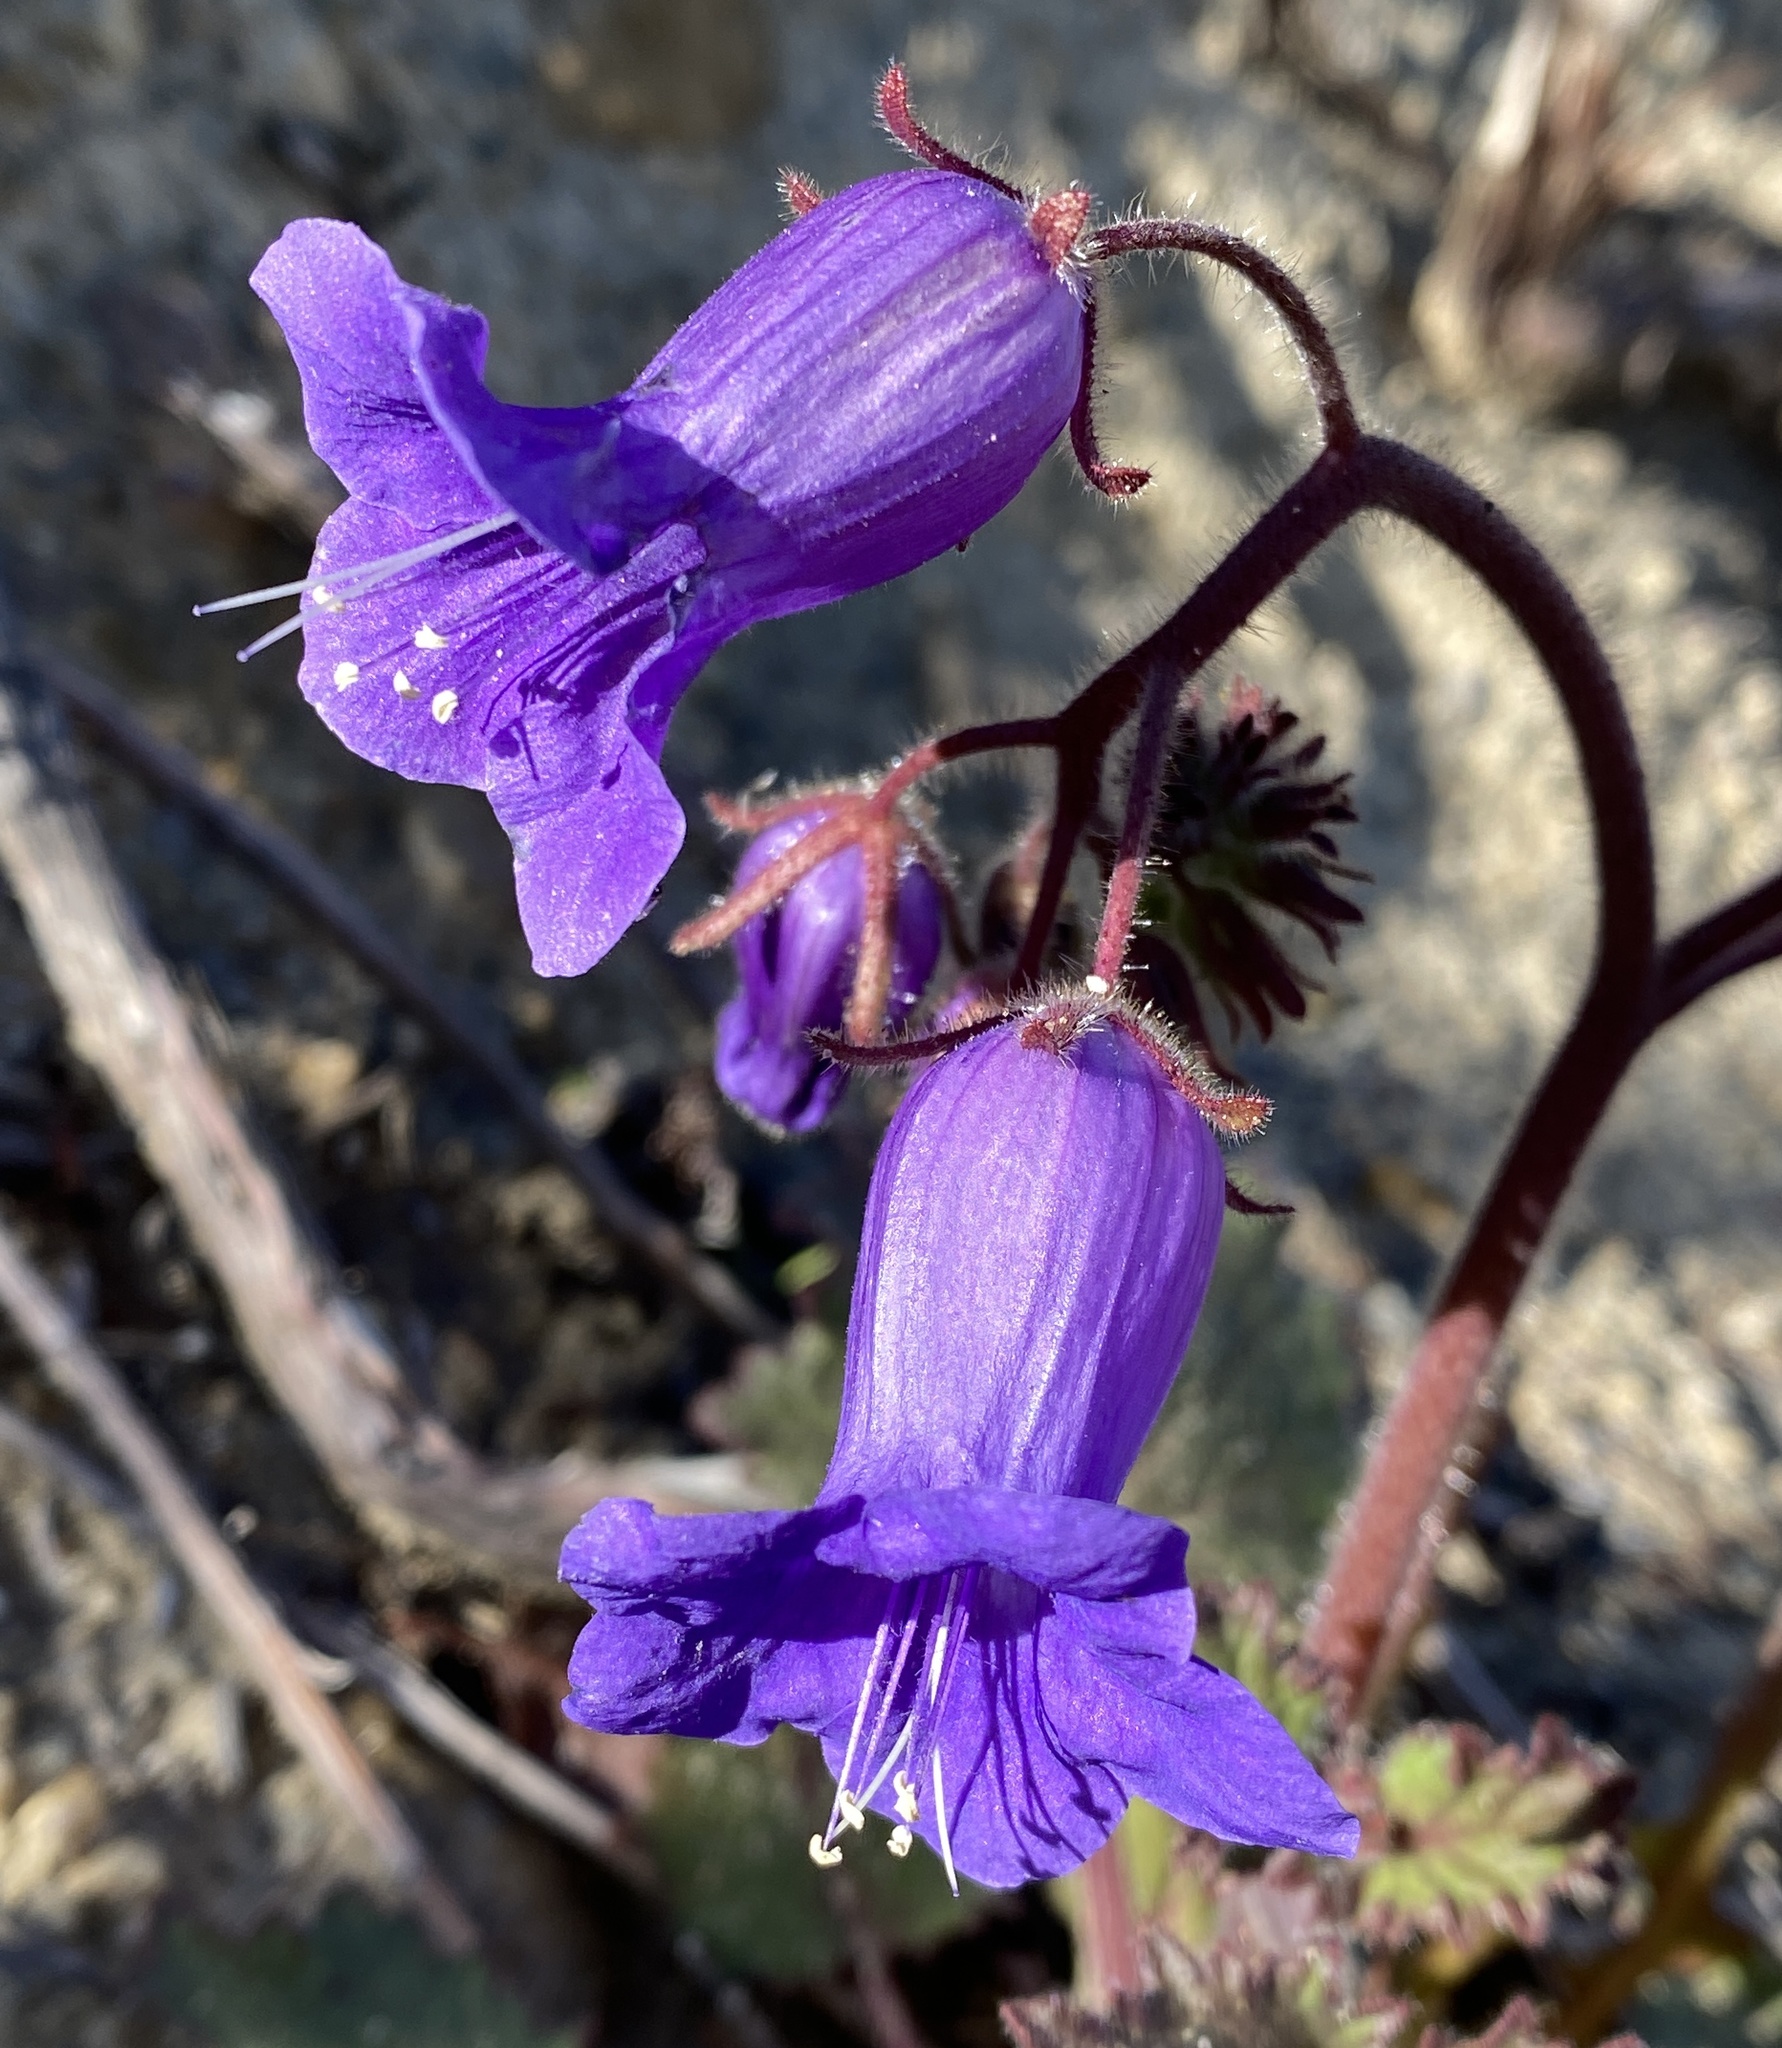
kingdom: Plantae
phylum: Tracheophyta
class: Magnoliopsida
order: Boraginales
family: Hydrophyllaceae
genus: Phacelia
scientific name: Phacelia minor
